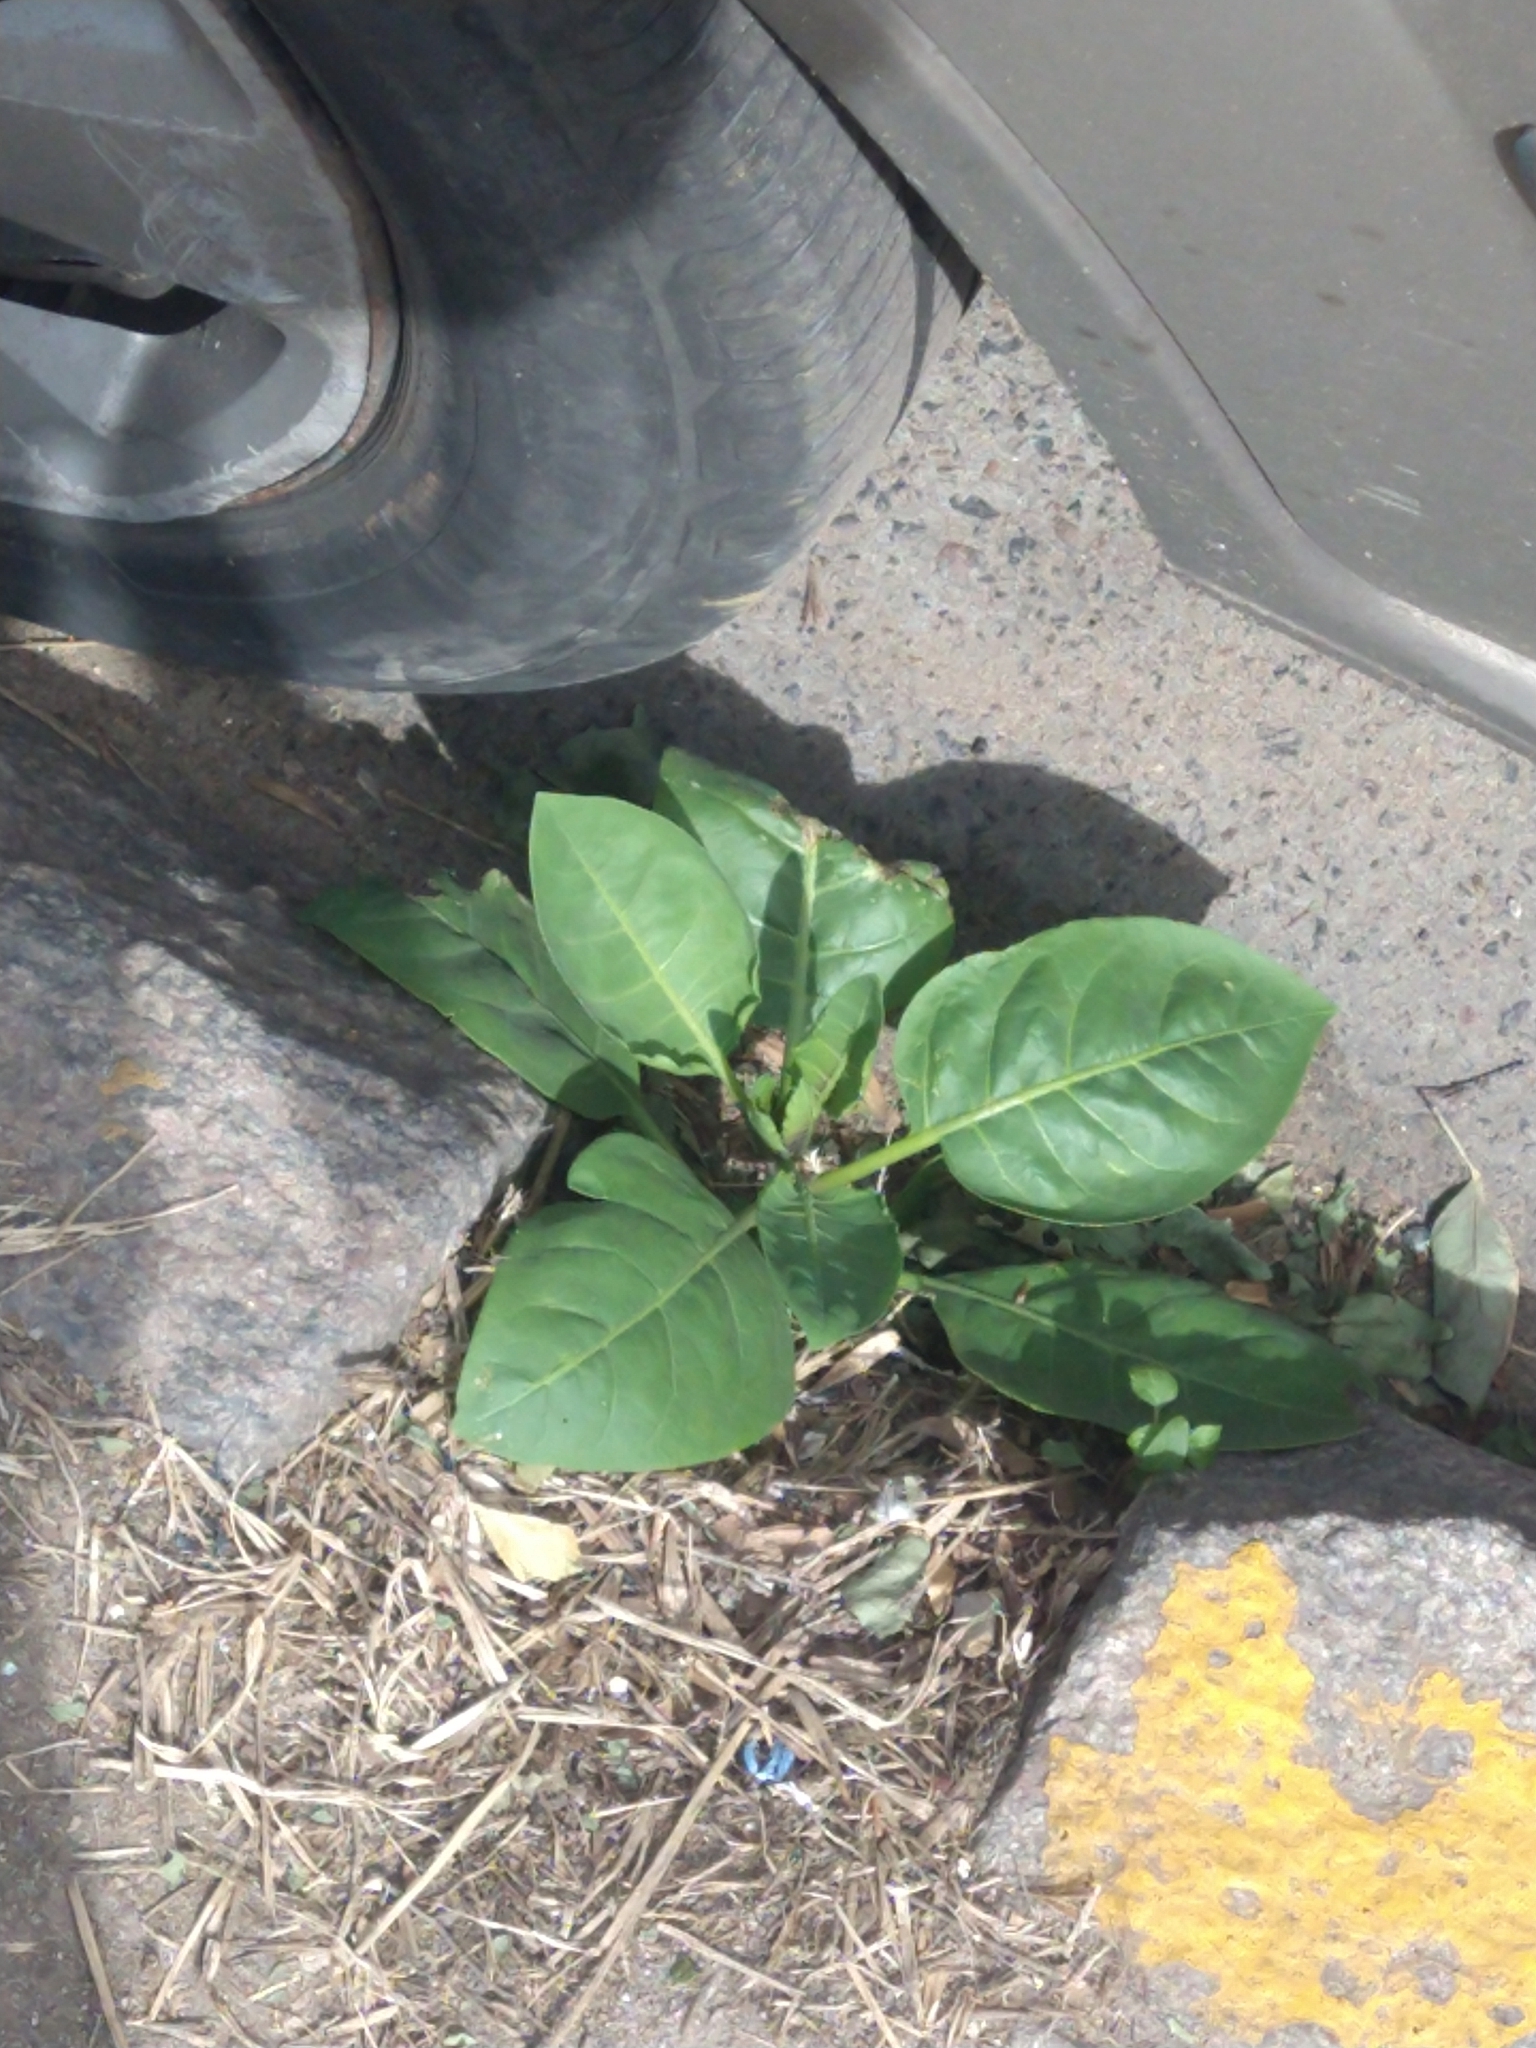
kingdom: Plantae
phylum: Tracheophyta
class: Magnoliopsida
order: Solanales
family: Solanaceae
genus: Nicotiana
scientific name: Nicotiana glauca
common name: Tree tobacco
